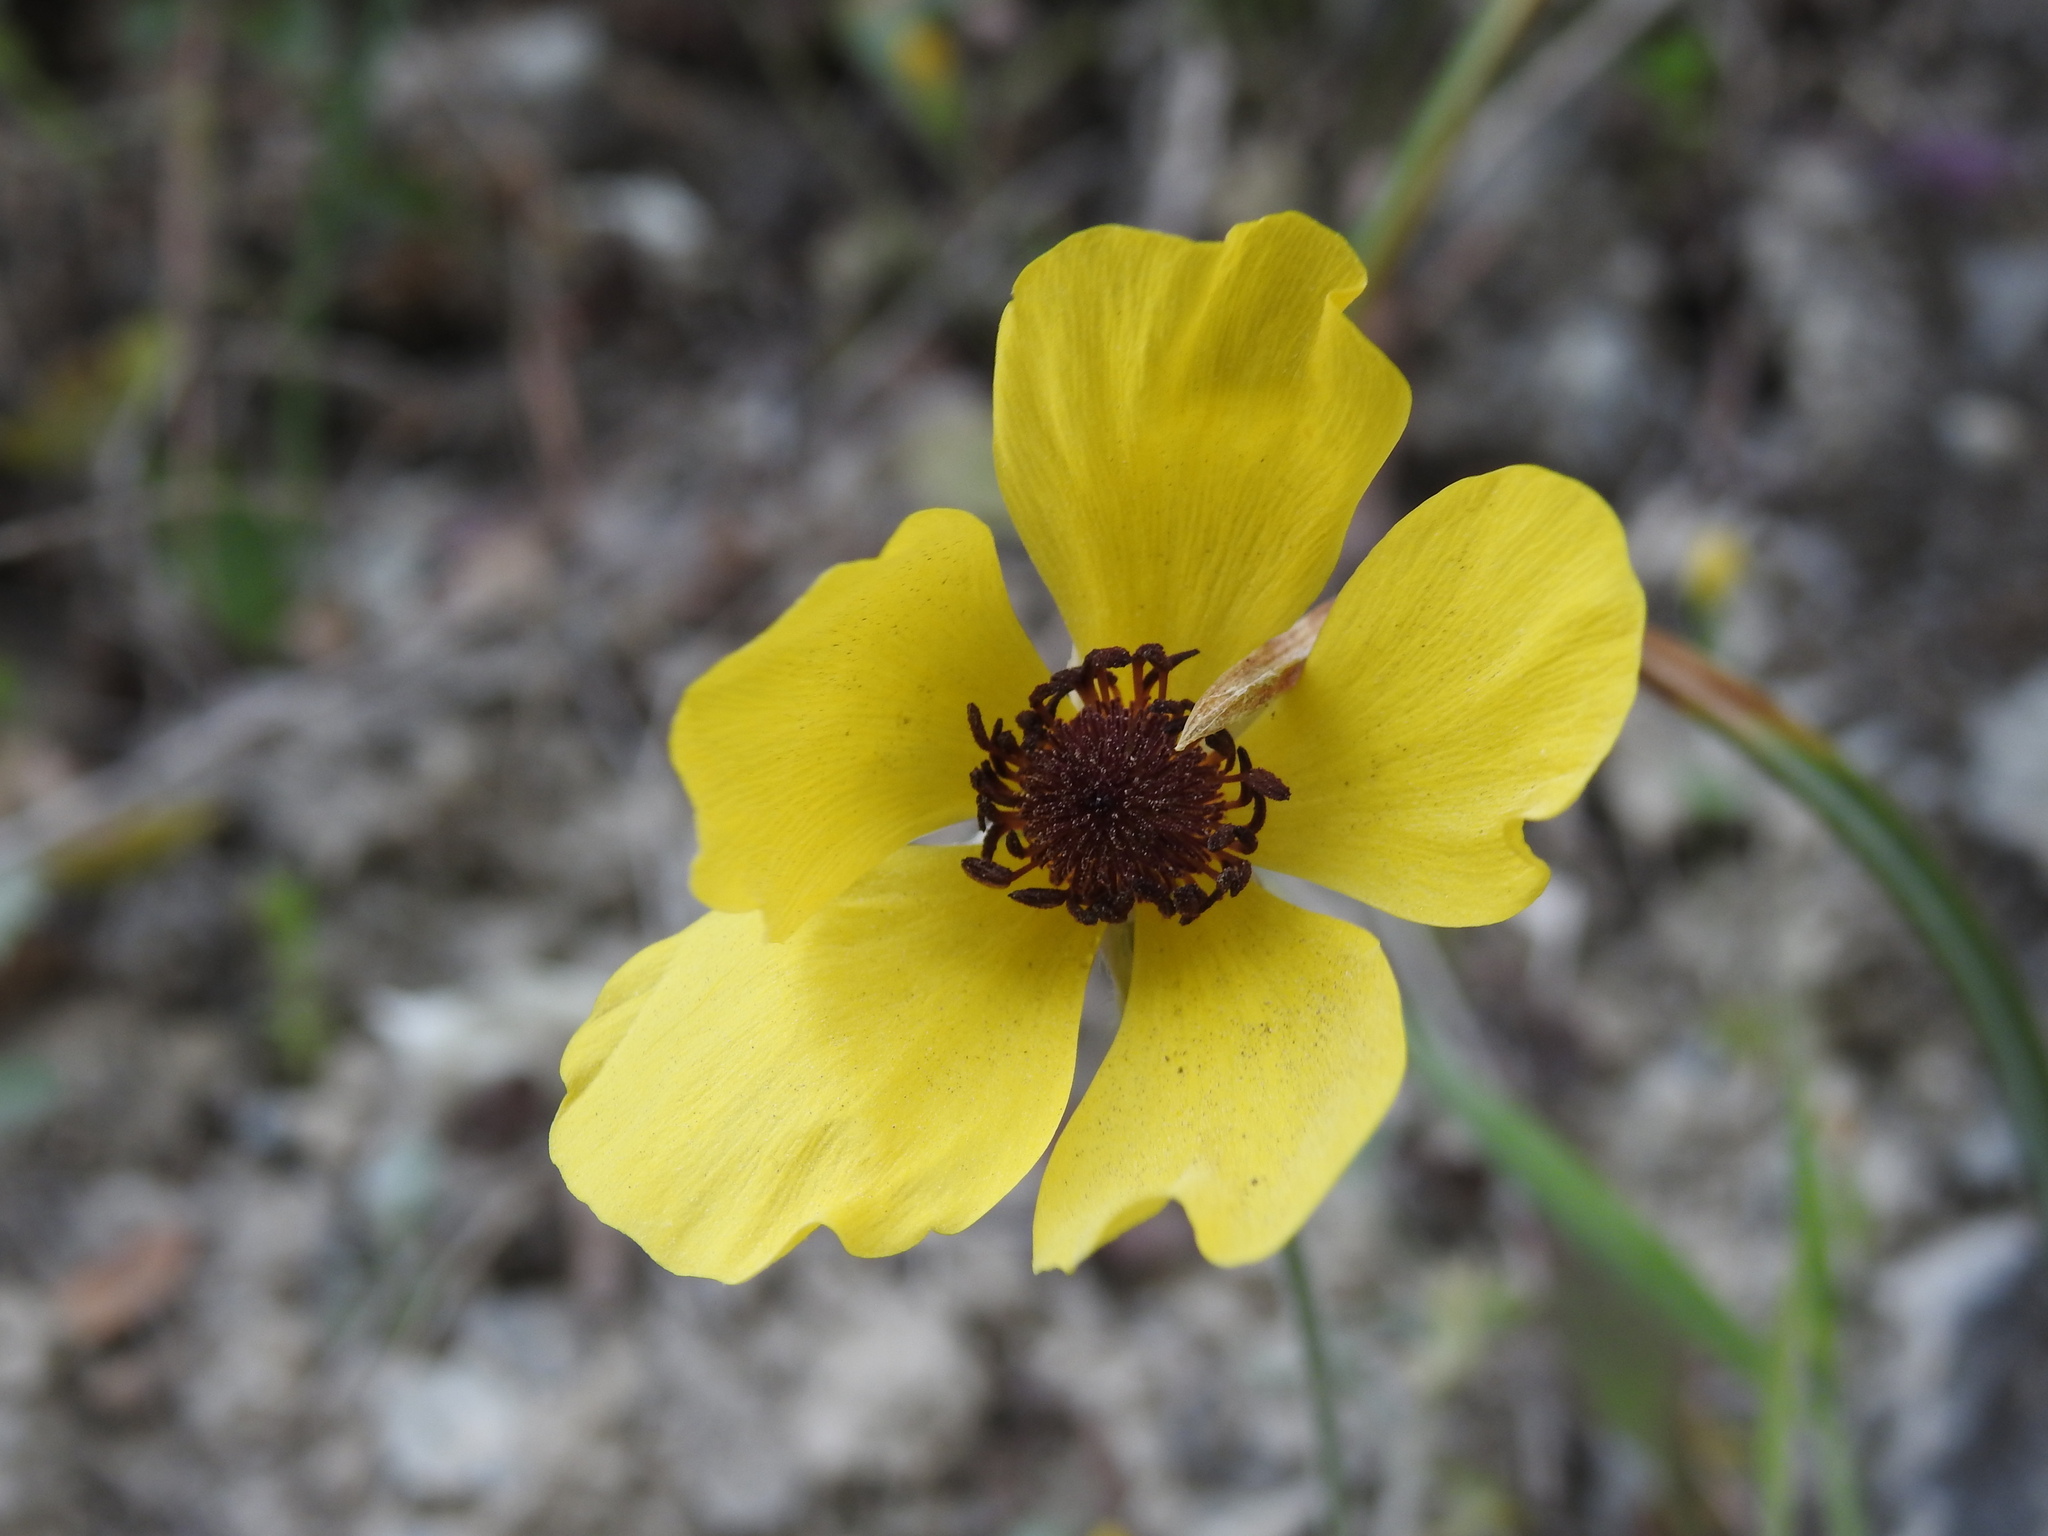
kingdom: Plantae
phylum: Tracheophyta
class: Magnoliopsida
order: Ranunculales
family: Ranunculaceae
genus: Ranunculus
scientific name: Ranunculus asiaticus
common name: Persian buttercup
